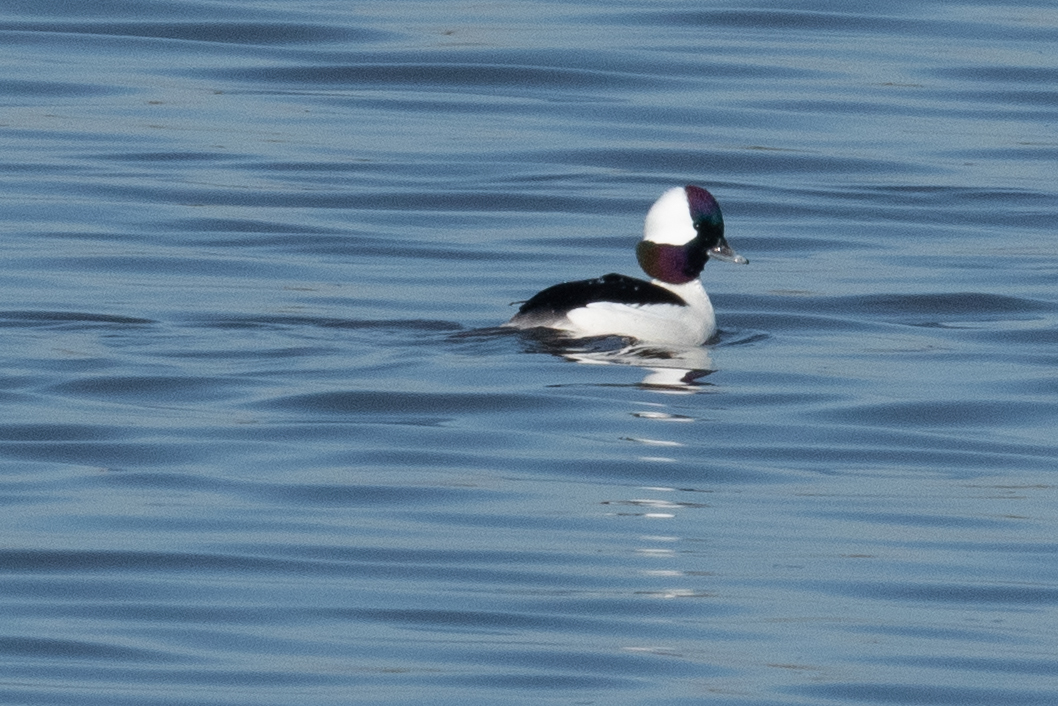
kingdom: Animalia
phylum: Chordata
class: Aves
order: Anseriformes
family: Anatidae
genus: Bucephala
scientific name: Bucephala albeola
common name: Bufflehead
